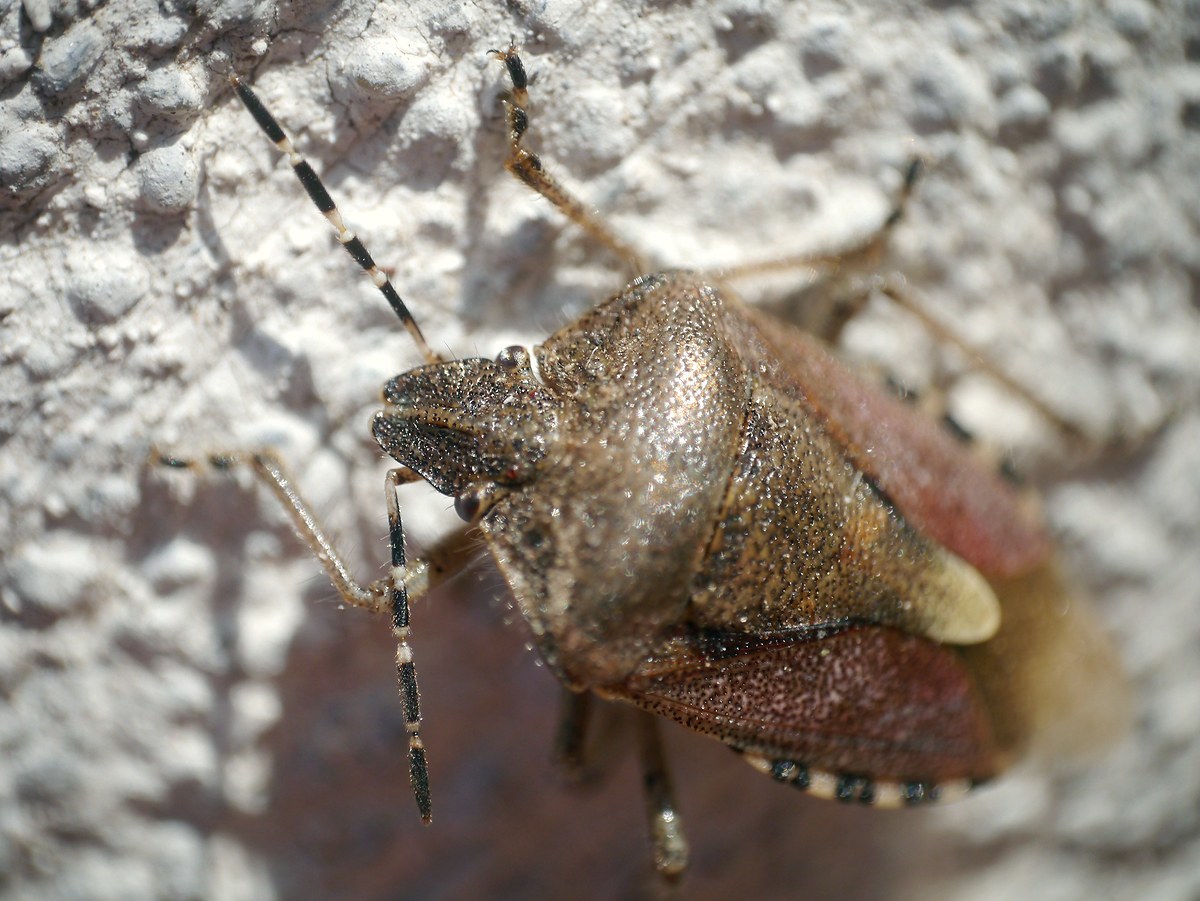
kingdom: Animalia
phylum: Arthropoda
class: Insecta
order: Hemiptera
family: Pentatomidae
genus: Dolycoris
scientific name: Dolycoris baccarum
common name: Sloe bug
